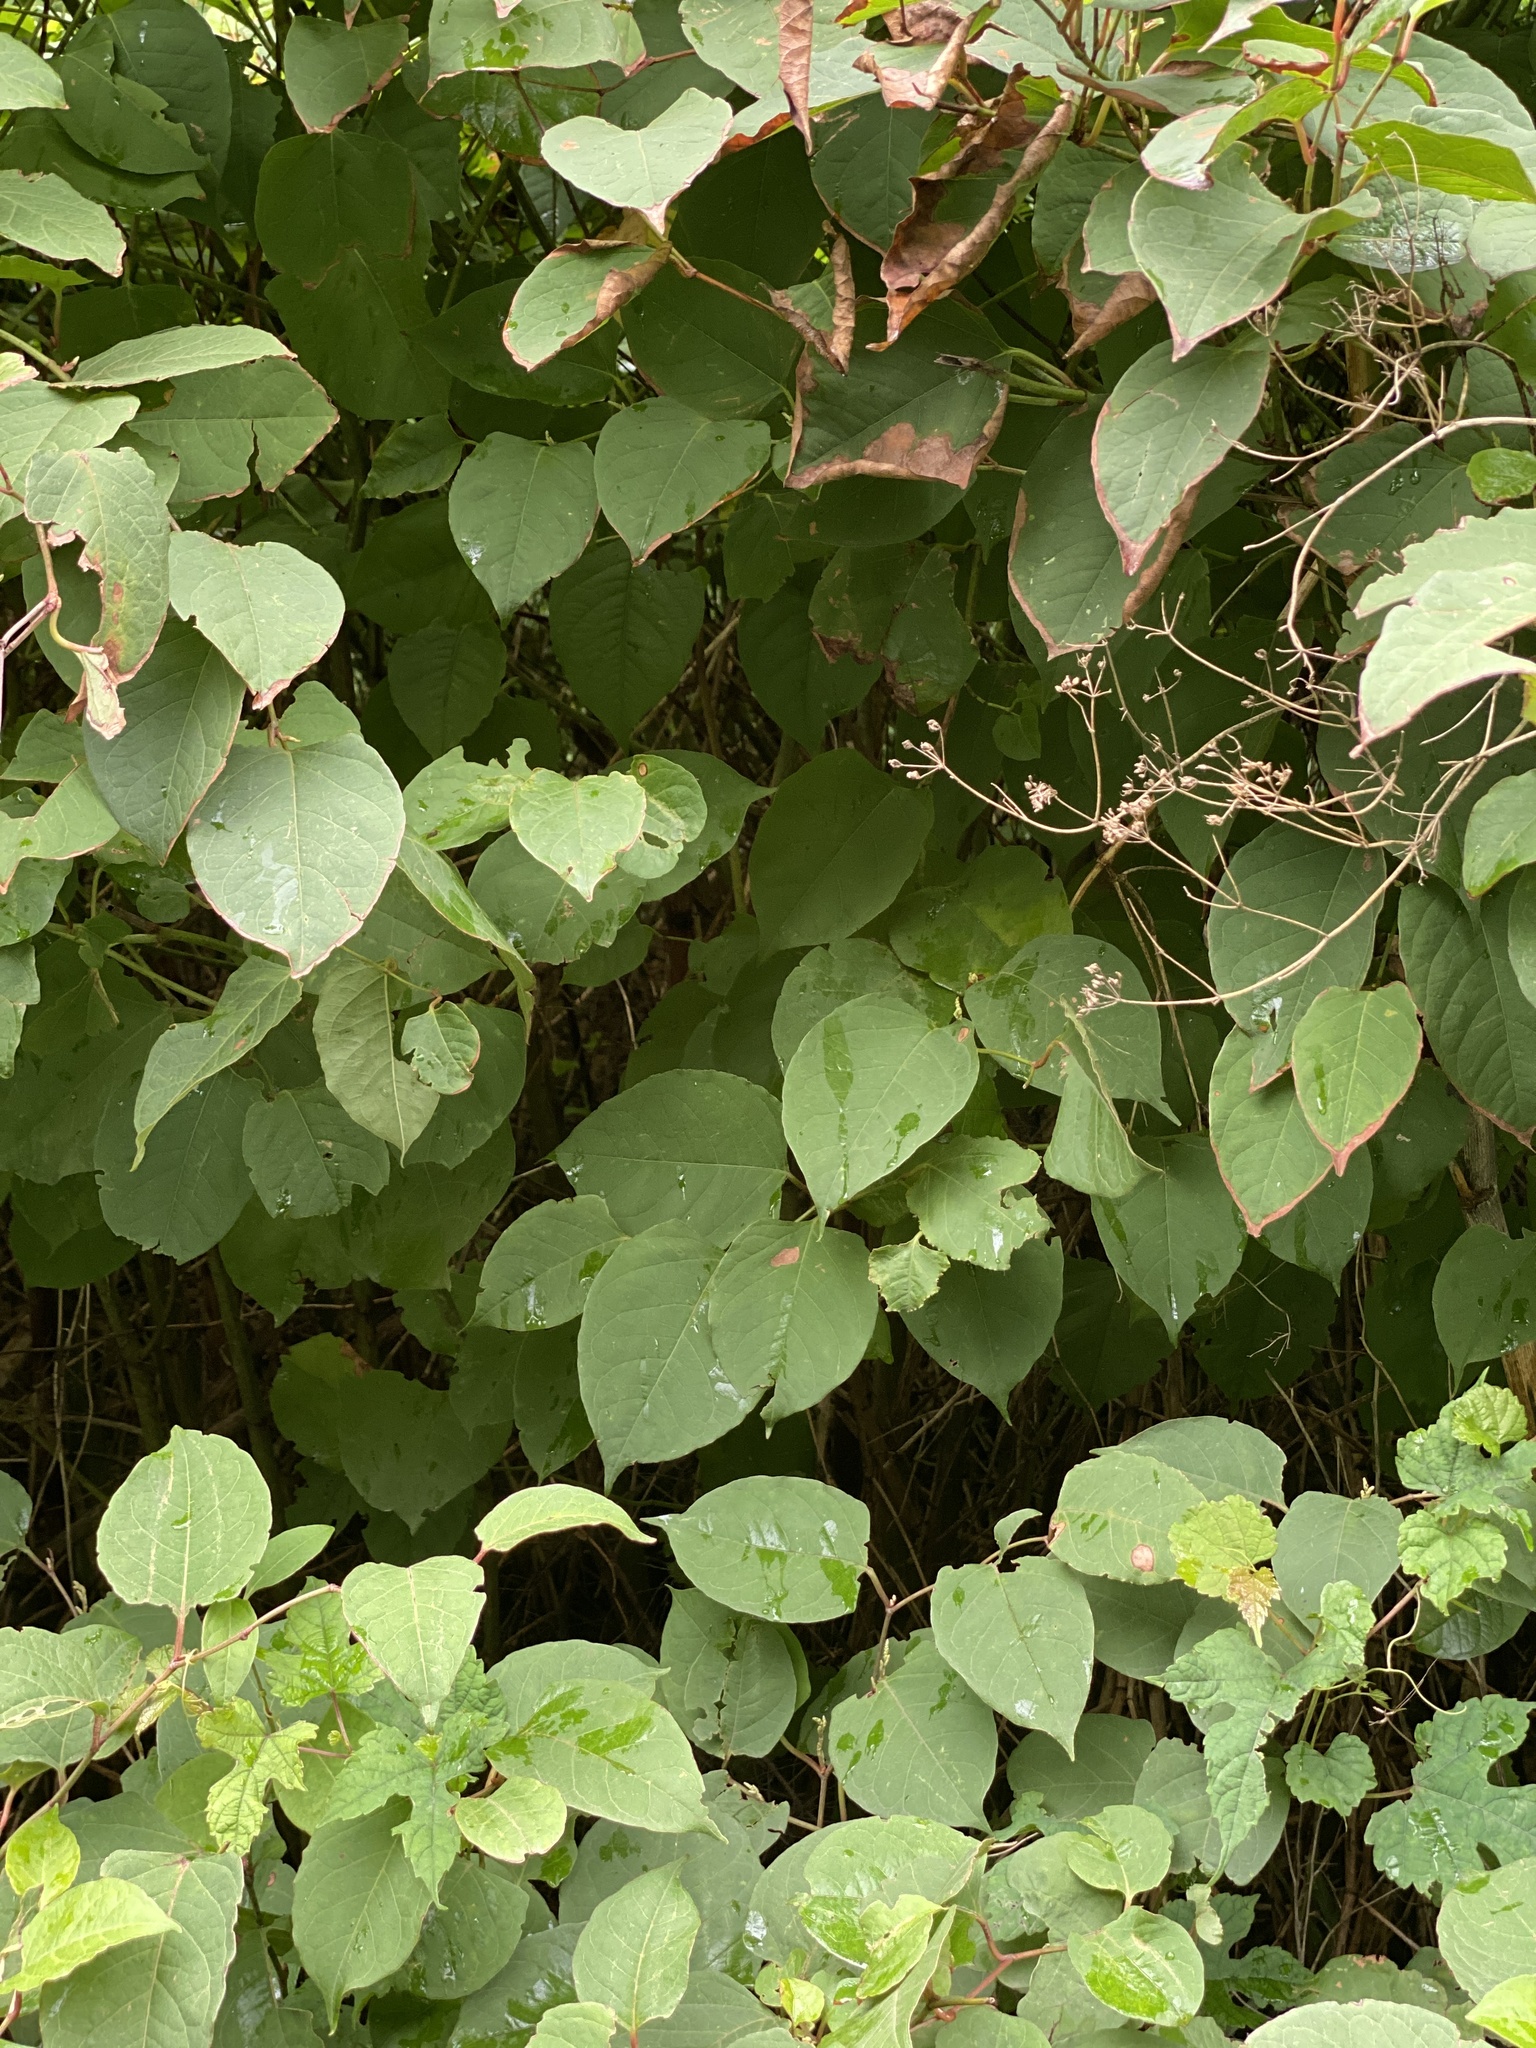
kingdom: Plantae
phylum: Tracheophyta
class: Magnoliopsida
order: Caryophyllales
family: Polygonaceae
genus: Reynoutria
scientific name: Reynoutria japonica
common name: Japanese knotweed
